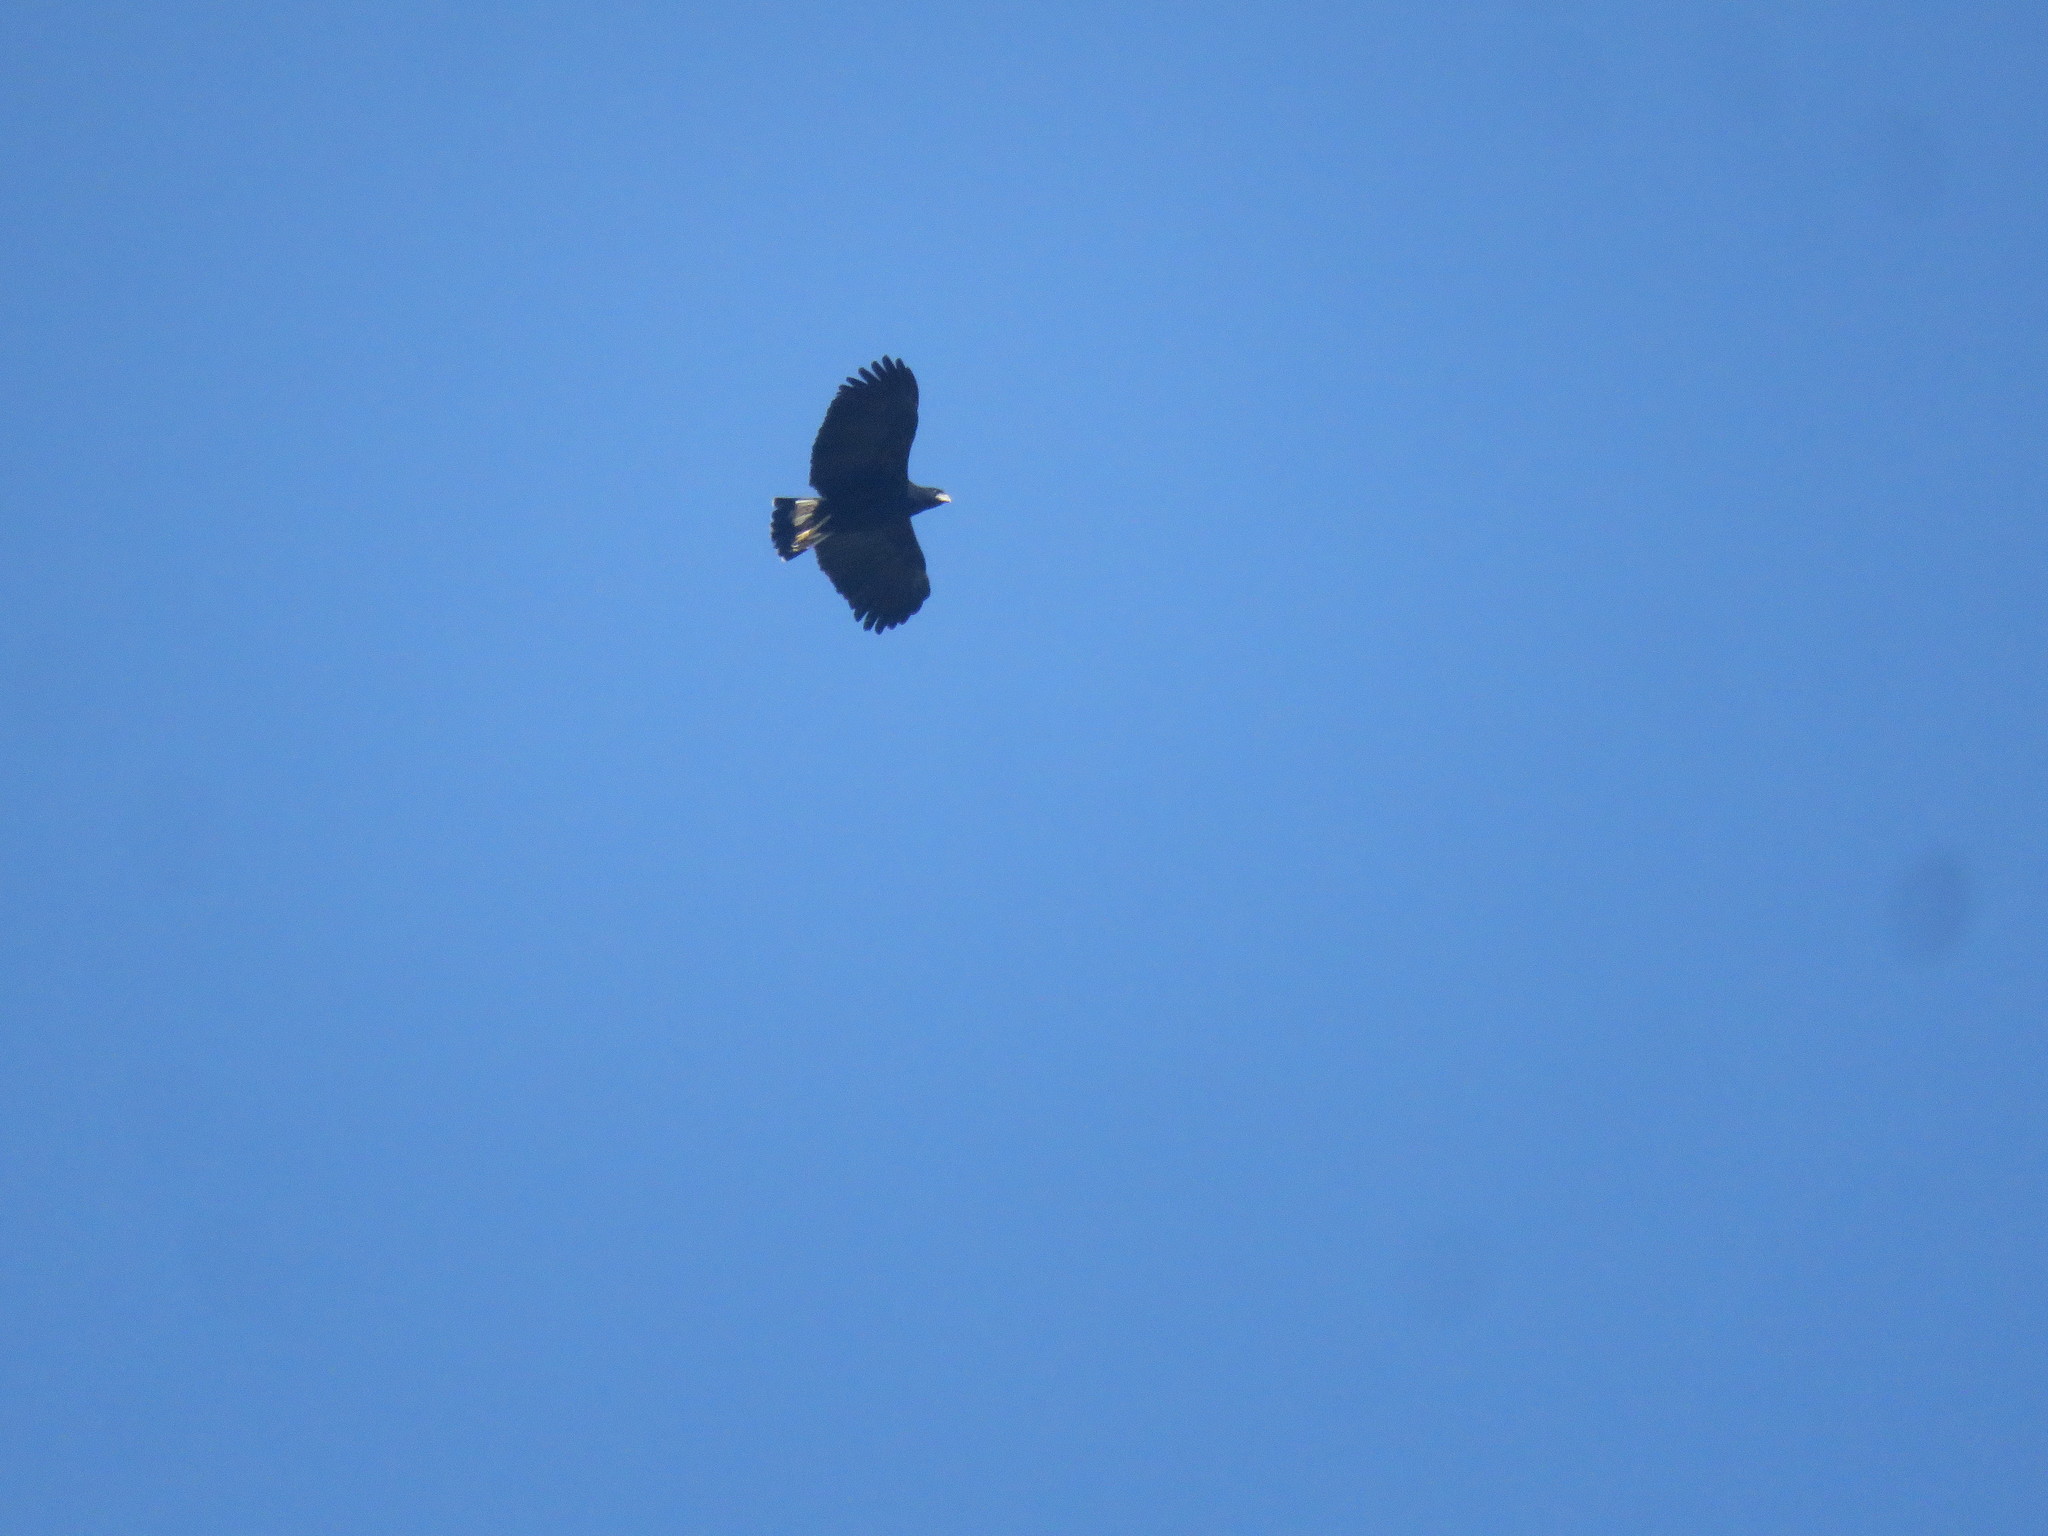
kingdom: Animalia
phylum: Chordata
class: Aves
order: Accipitriformes
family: Accipitridae
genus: Buteogallus
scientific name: Buteogallus urubitinga
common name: Great black hawk
